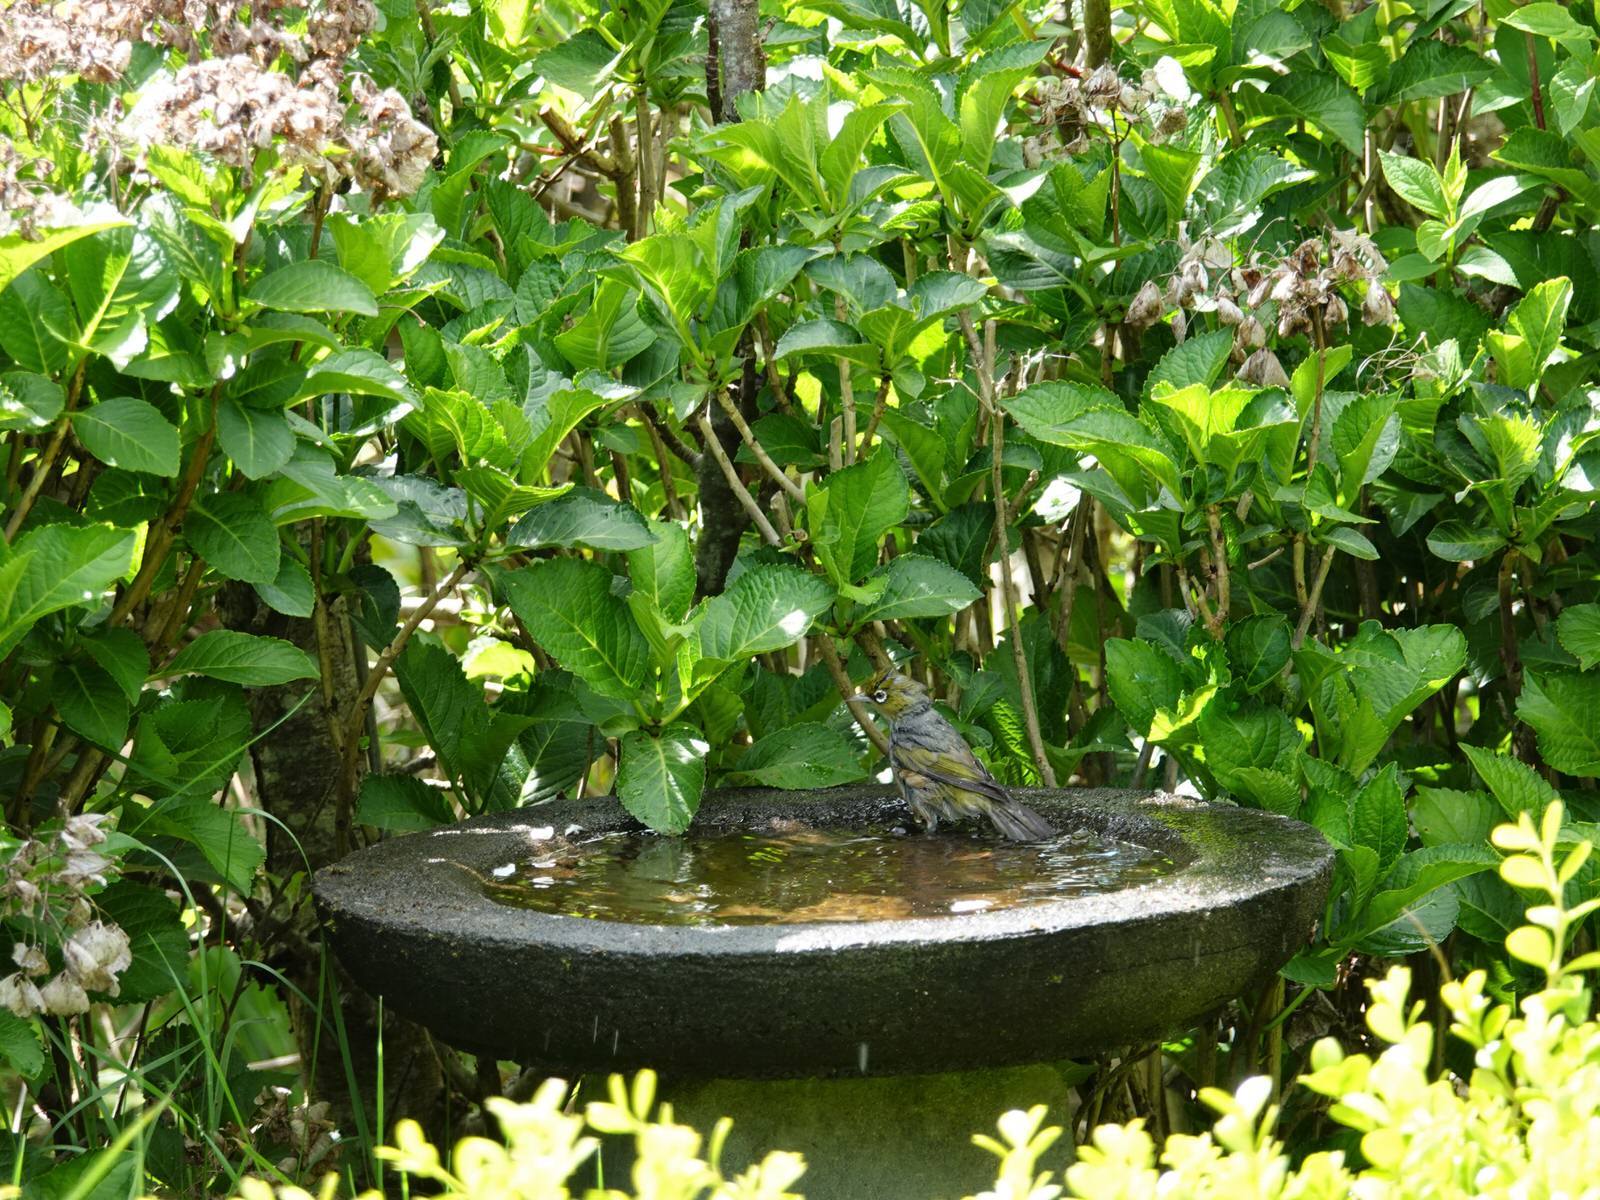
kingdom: Animalia
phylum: Chordata
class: Aves
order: Passeriformes
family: Zosteropidae
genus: Zosterops
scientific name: Zosterops lateralis
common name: Silvereye
